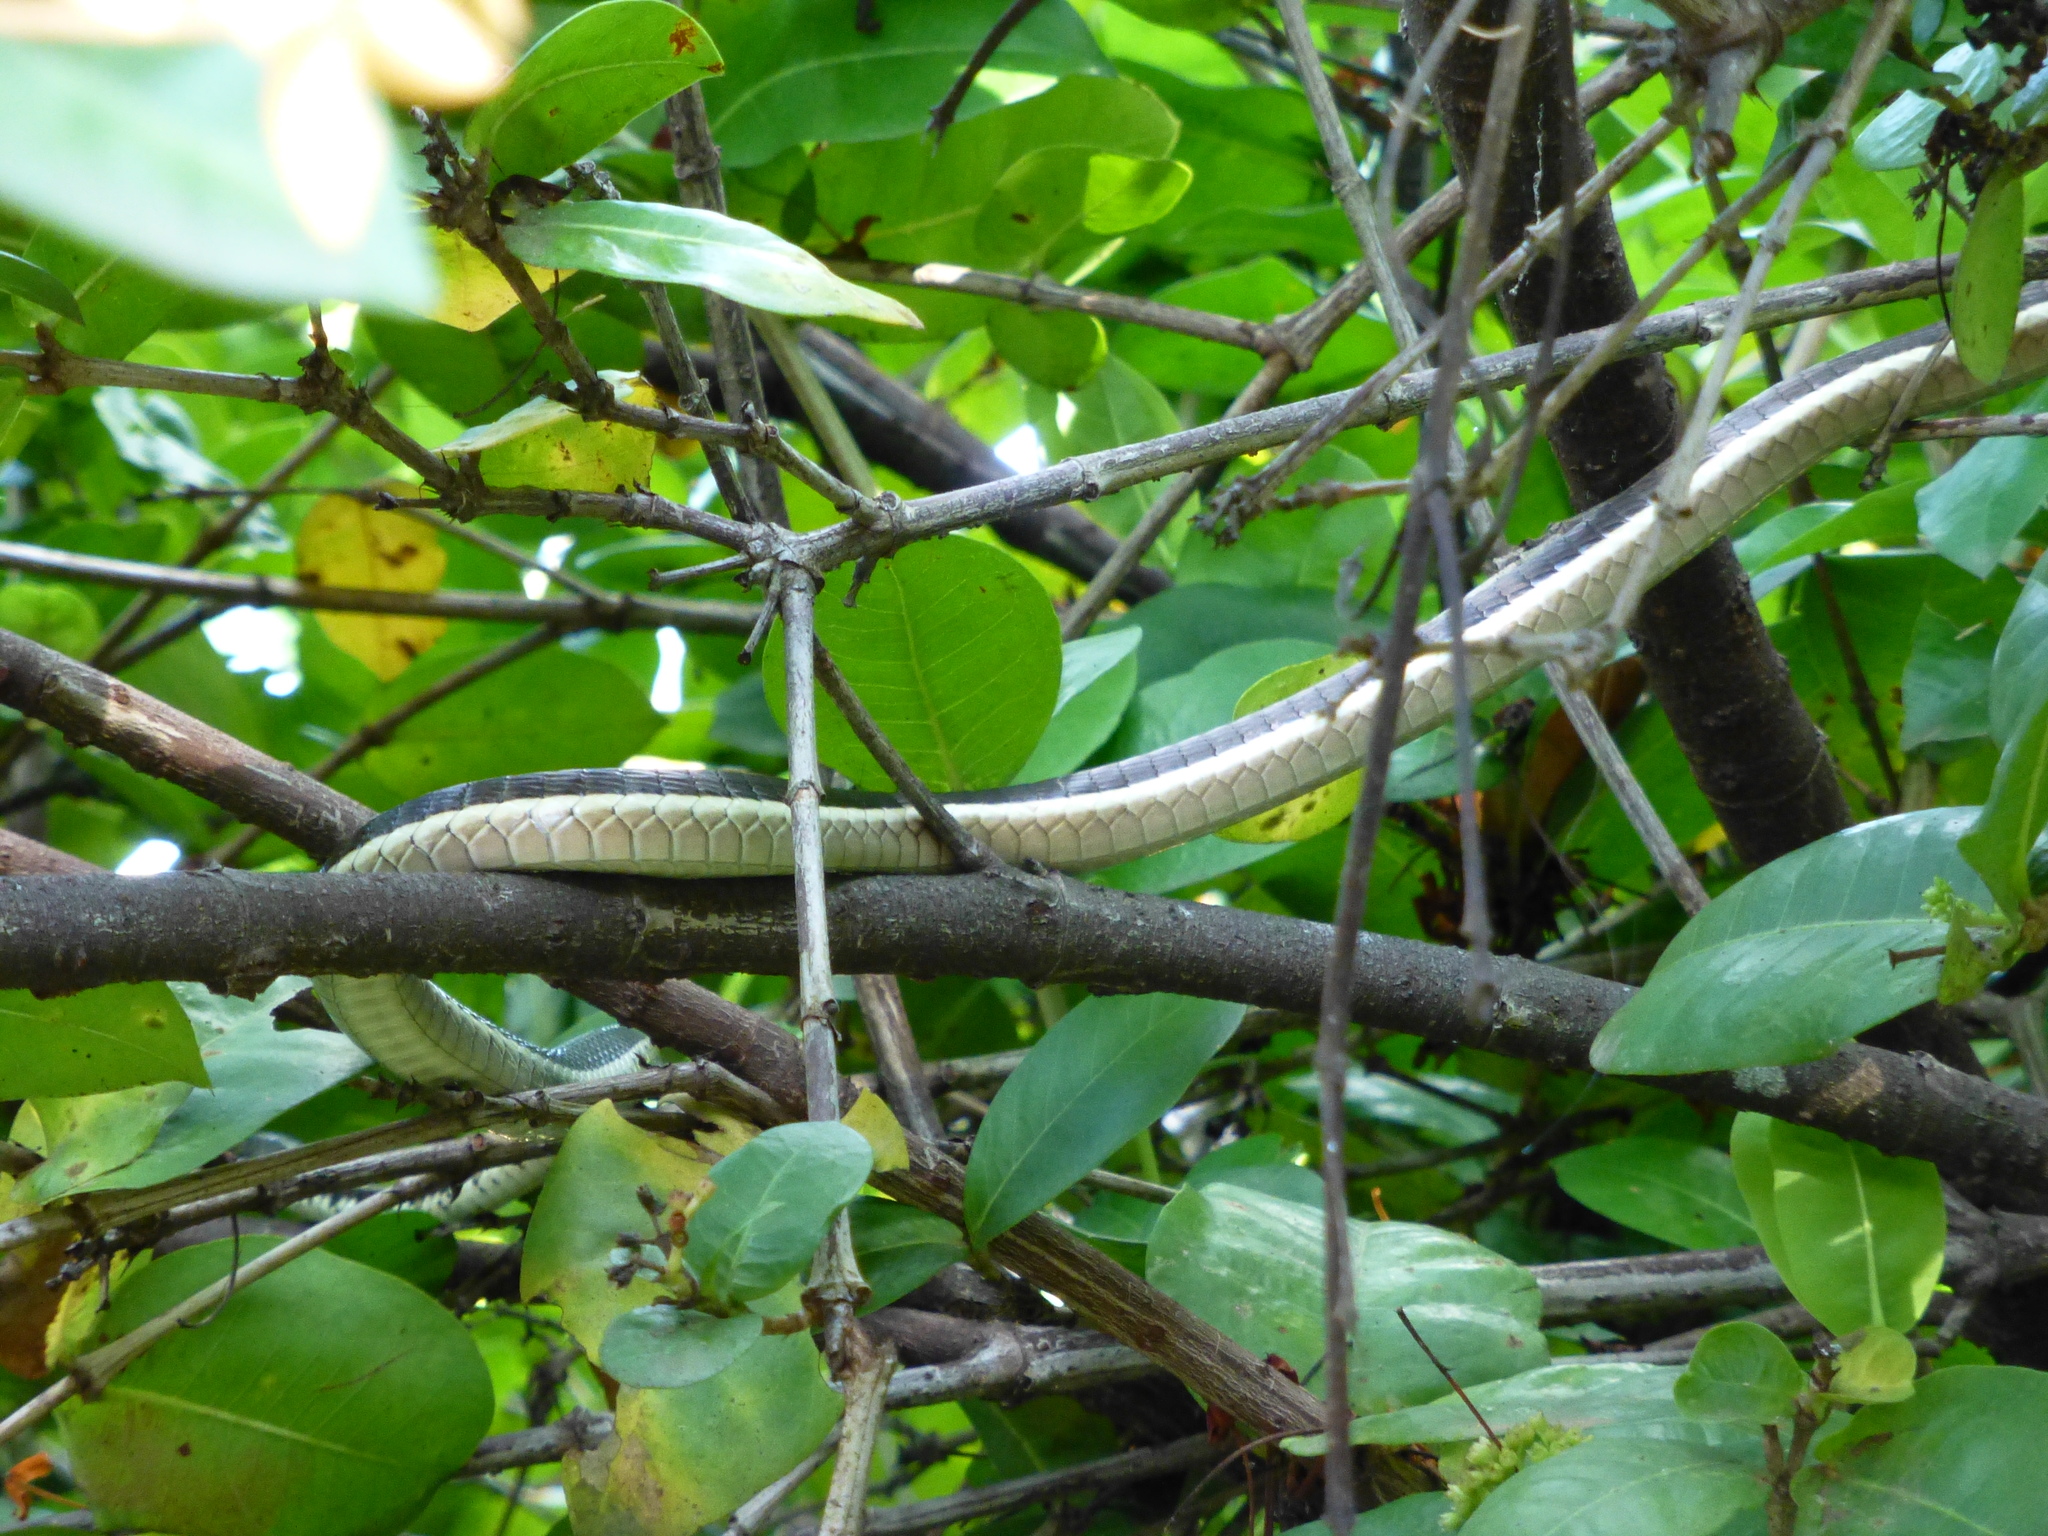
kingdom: Animalia
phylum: Chordata
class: Squamata
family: Colubridae
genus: Dendrelaphis
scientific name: Dendrelaphis tristis
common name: Daudin's bronzeback
